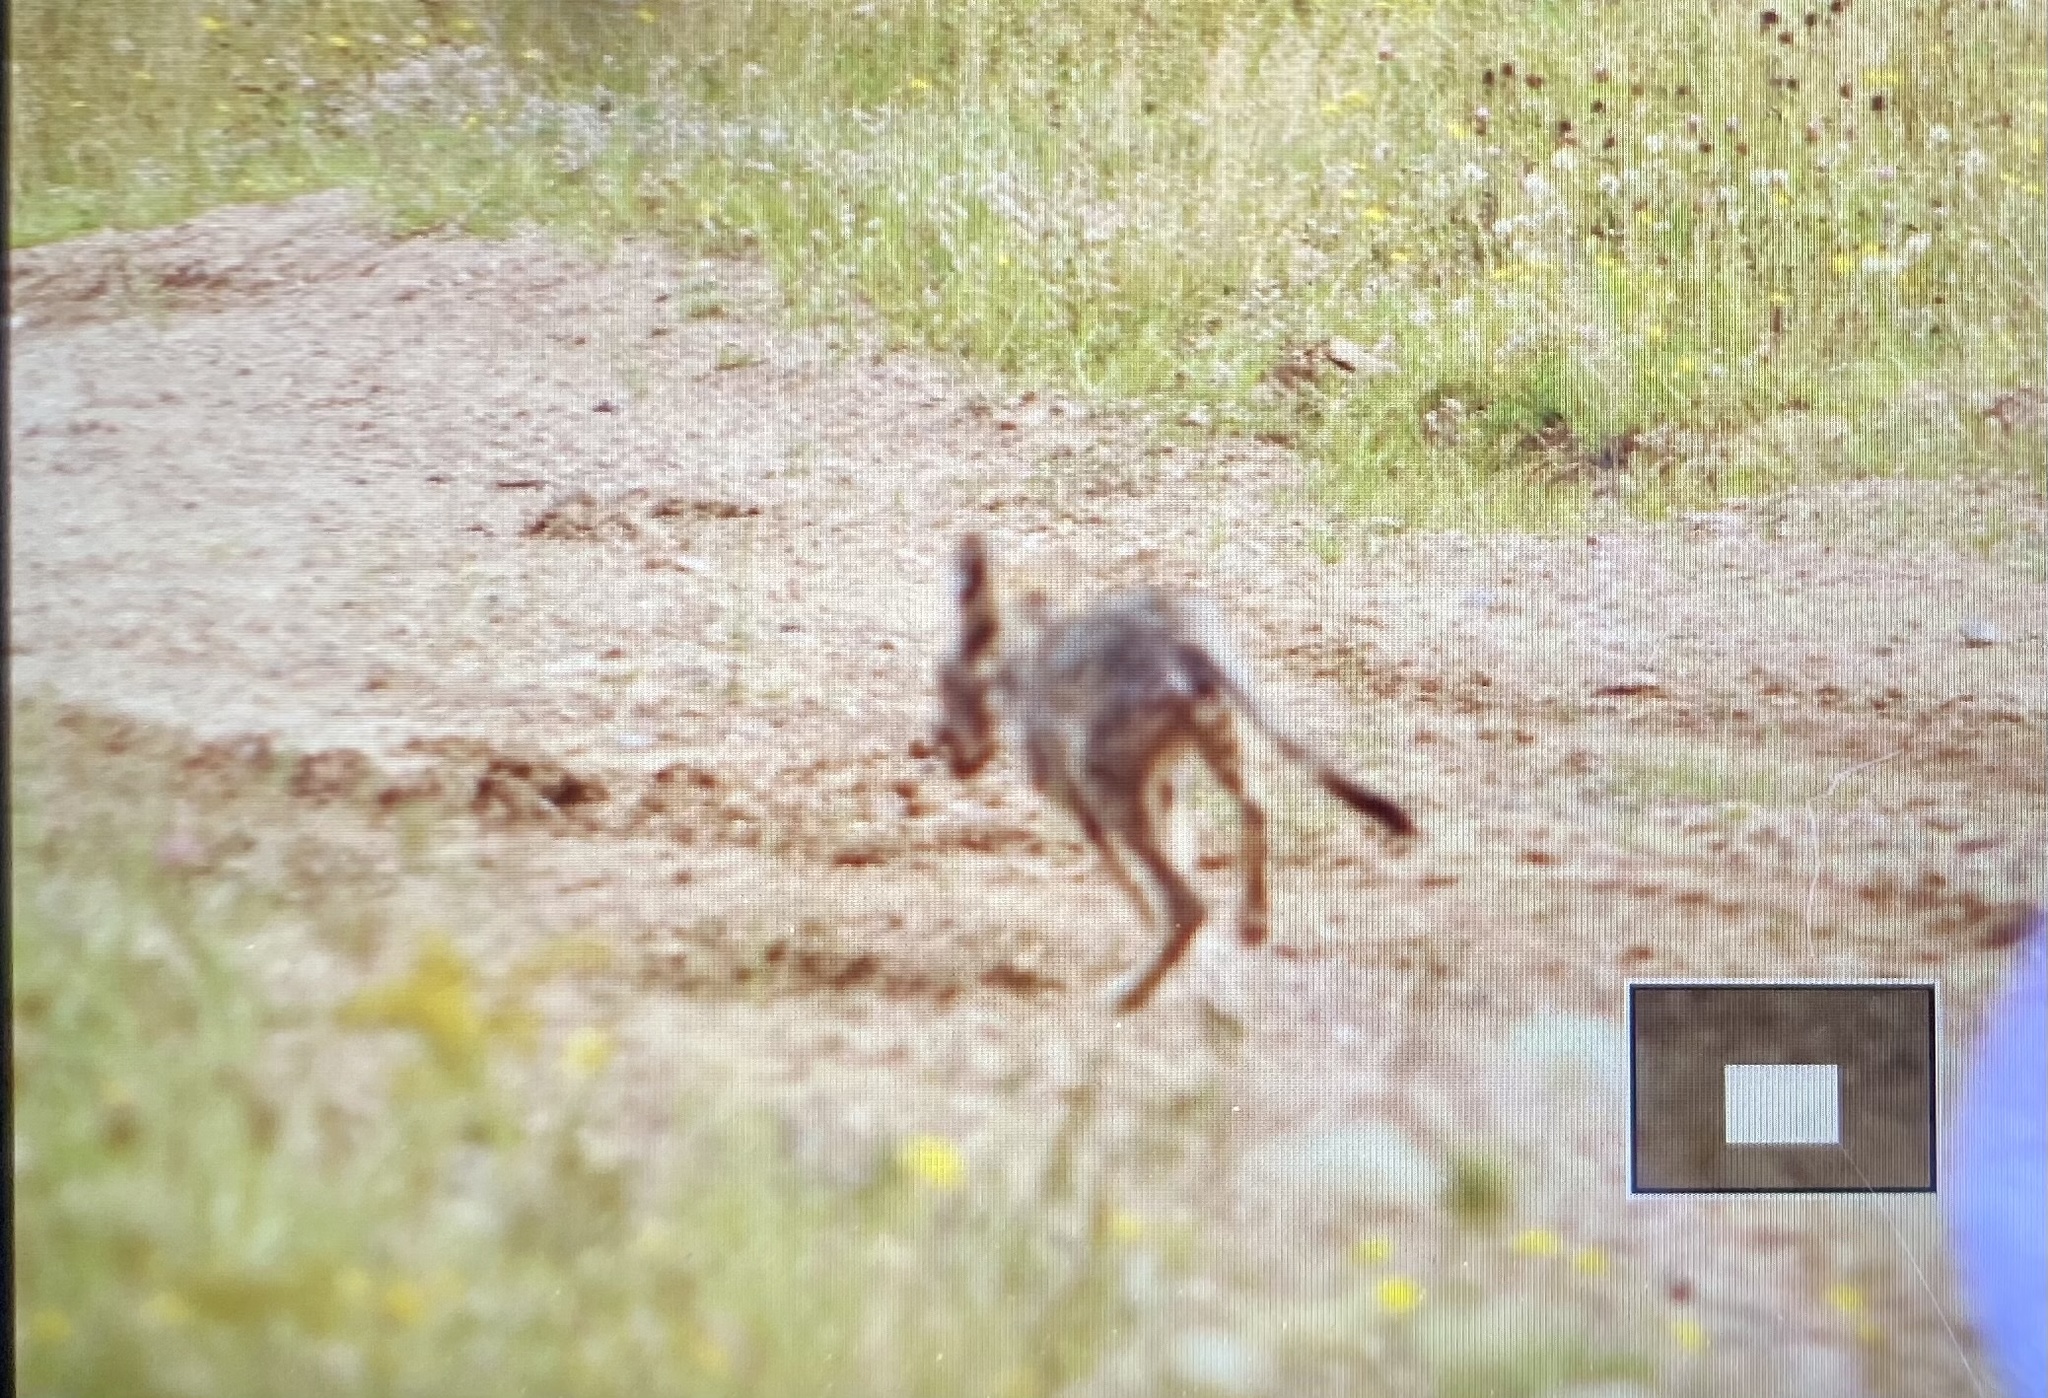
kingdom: Animalia
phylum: Chordata
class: Mammalia
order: Carnivora
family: Canidae
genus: Canis
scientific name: Canis latrans
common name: Coyote
